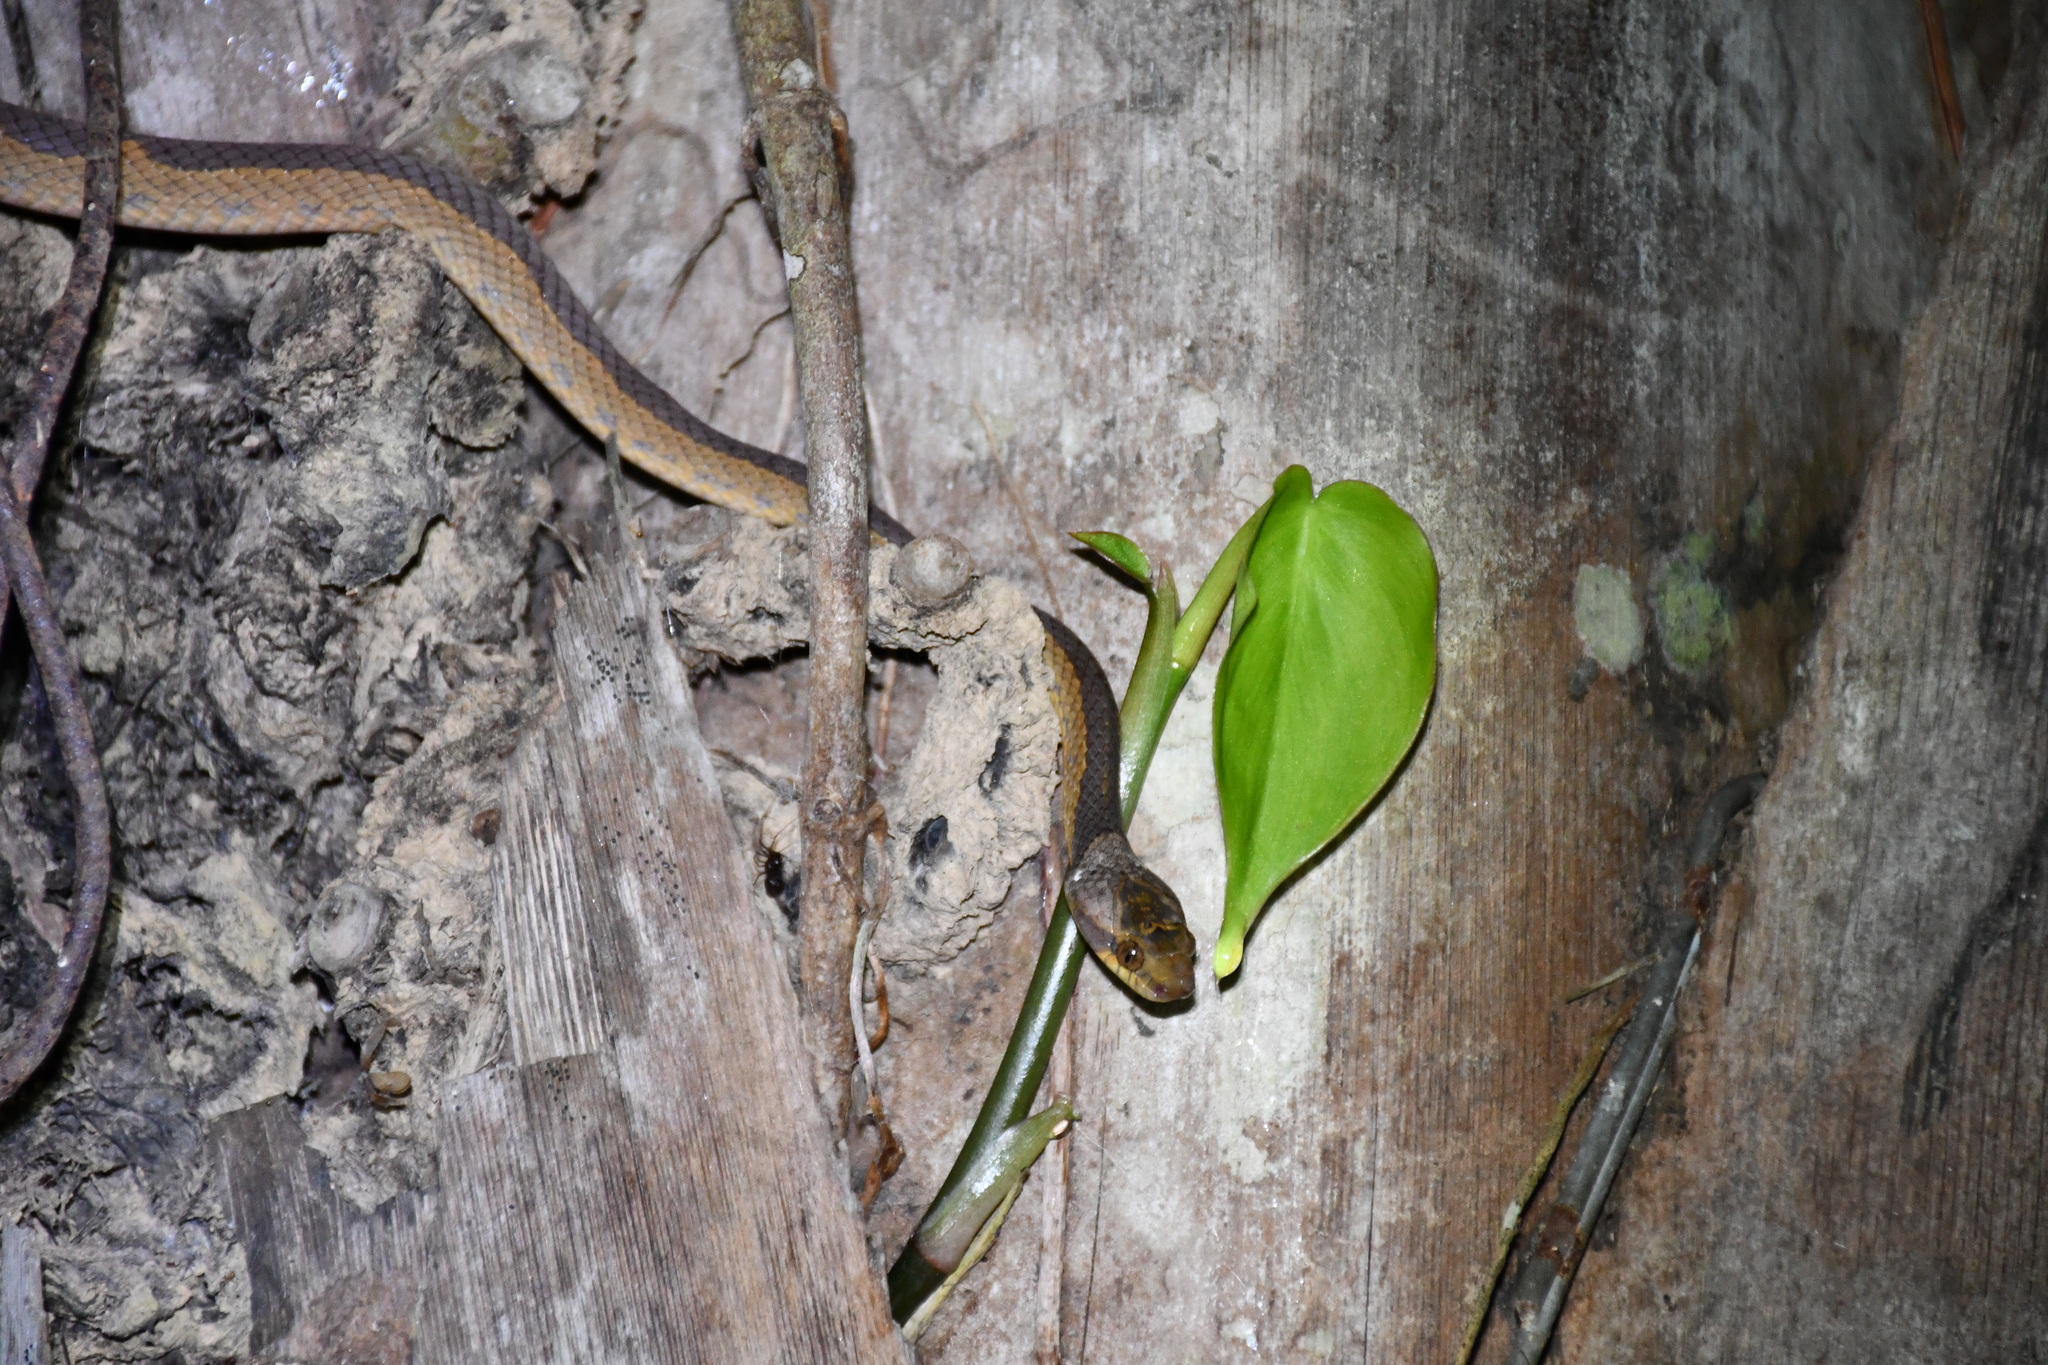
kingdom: Animalia
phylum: Chordata
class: Squamata
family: Colubridae
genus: Leptodeira
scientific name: Leptodeira annulata
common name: Banded cat-eyed snake
